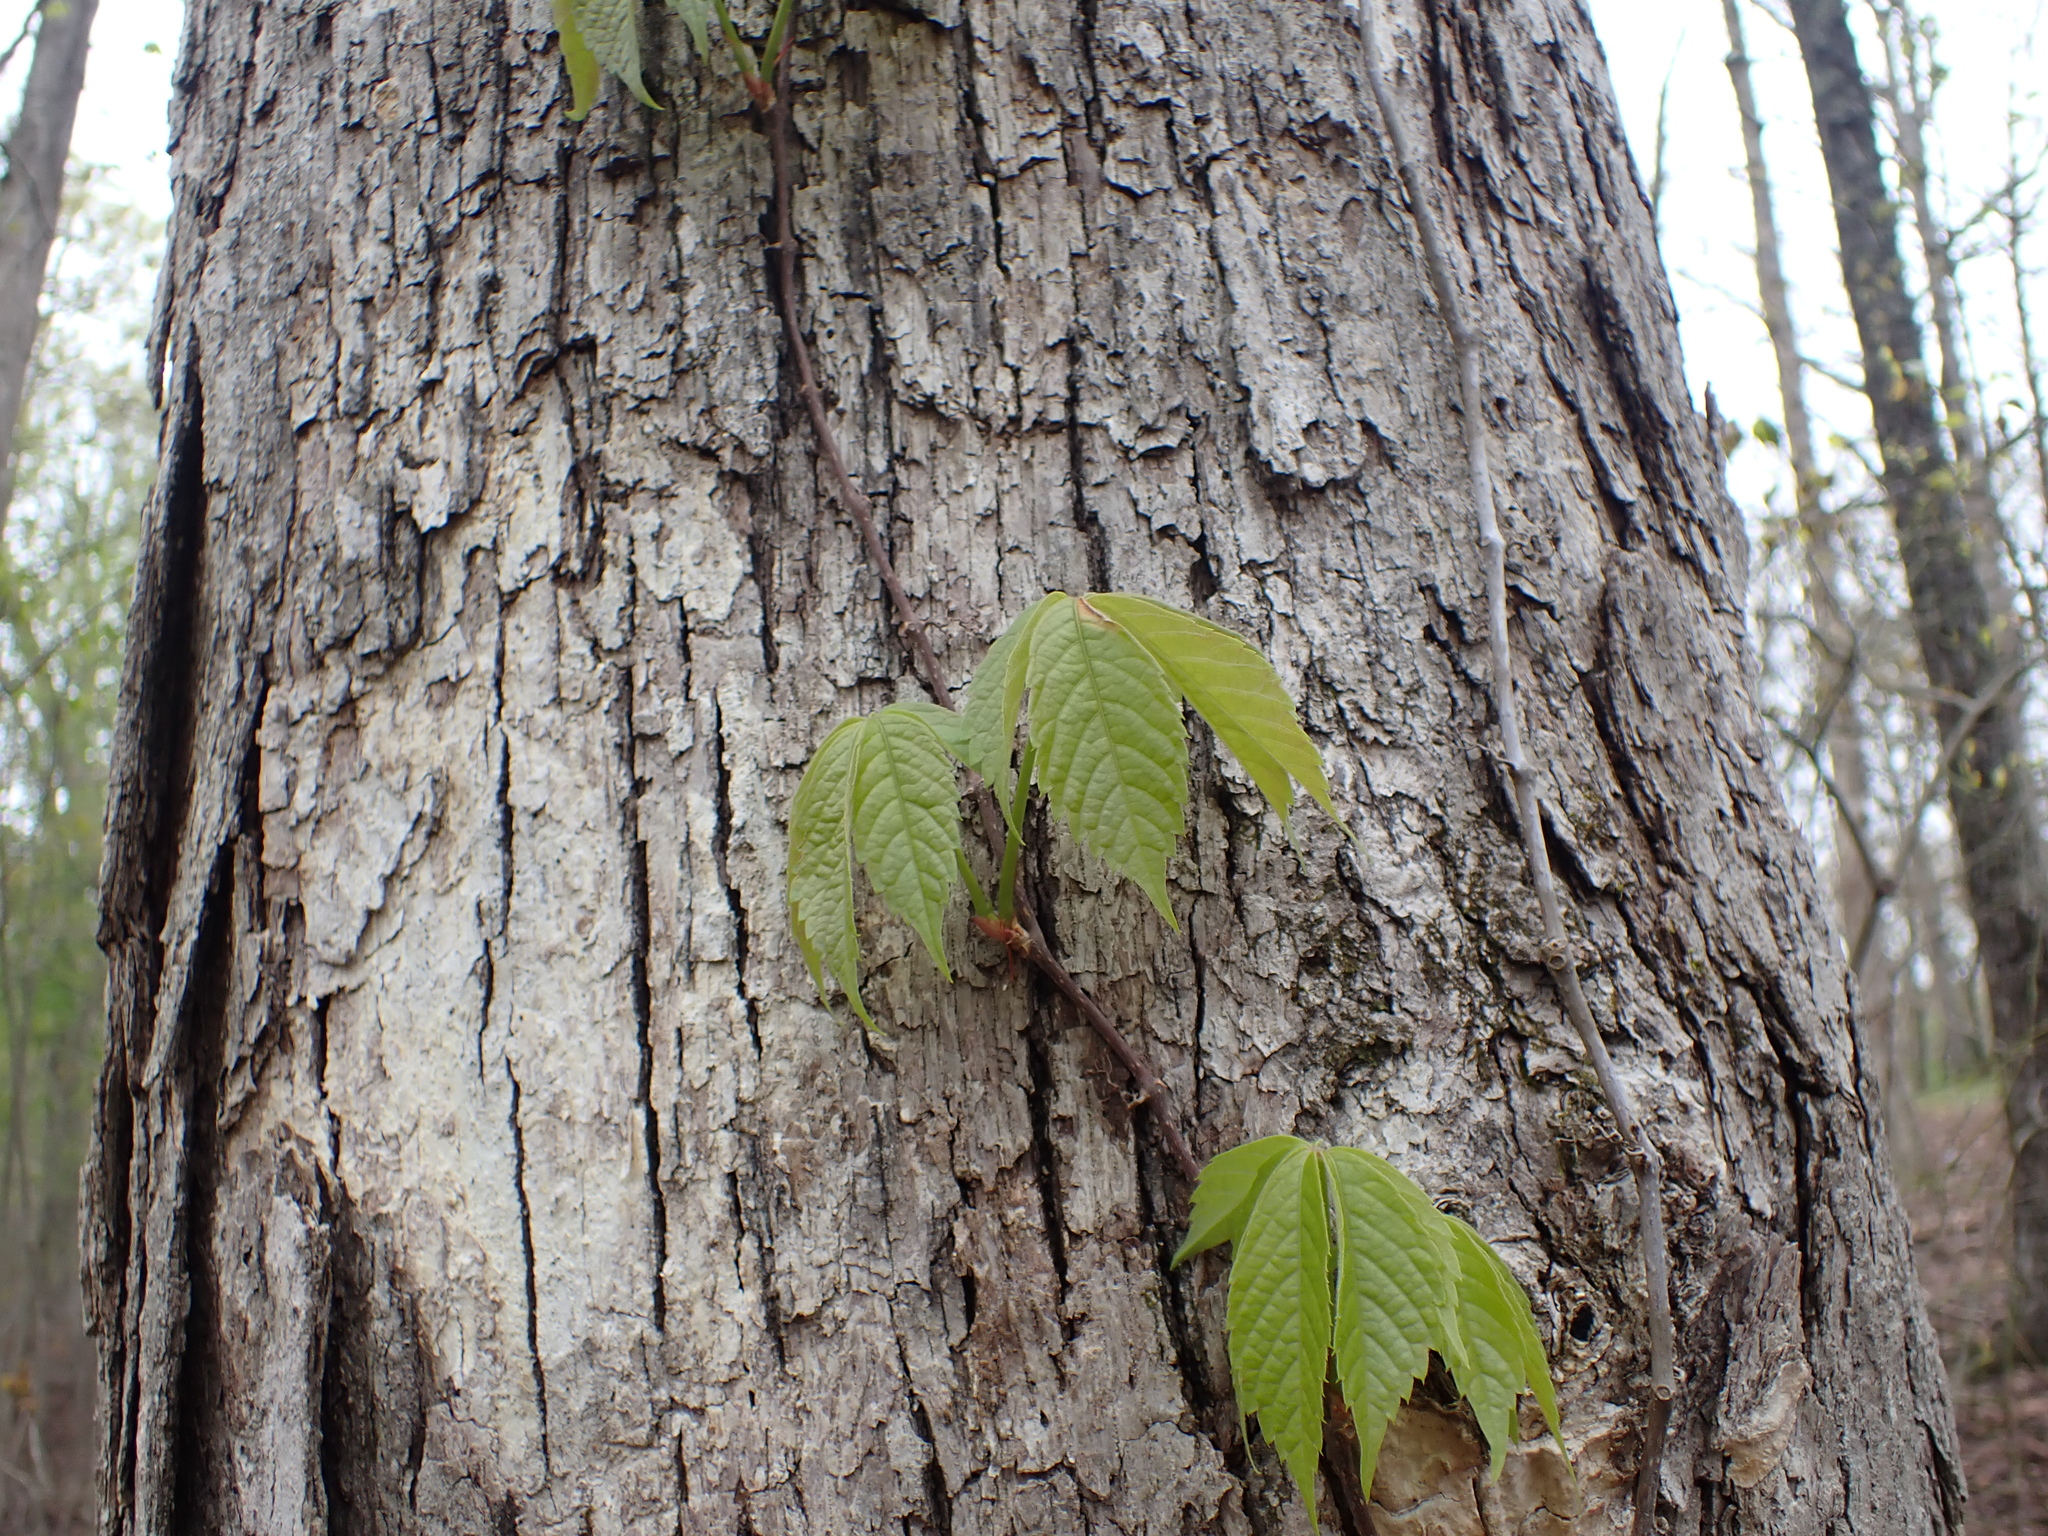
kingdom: Plantae
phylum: Tracheophyta
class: Magnoliopsida
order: Vitales
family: Vitaceae
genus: Parthenocissus
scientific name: Parthenocissus quinquefolia
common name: Virginia-creeper
